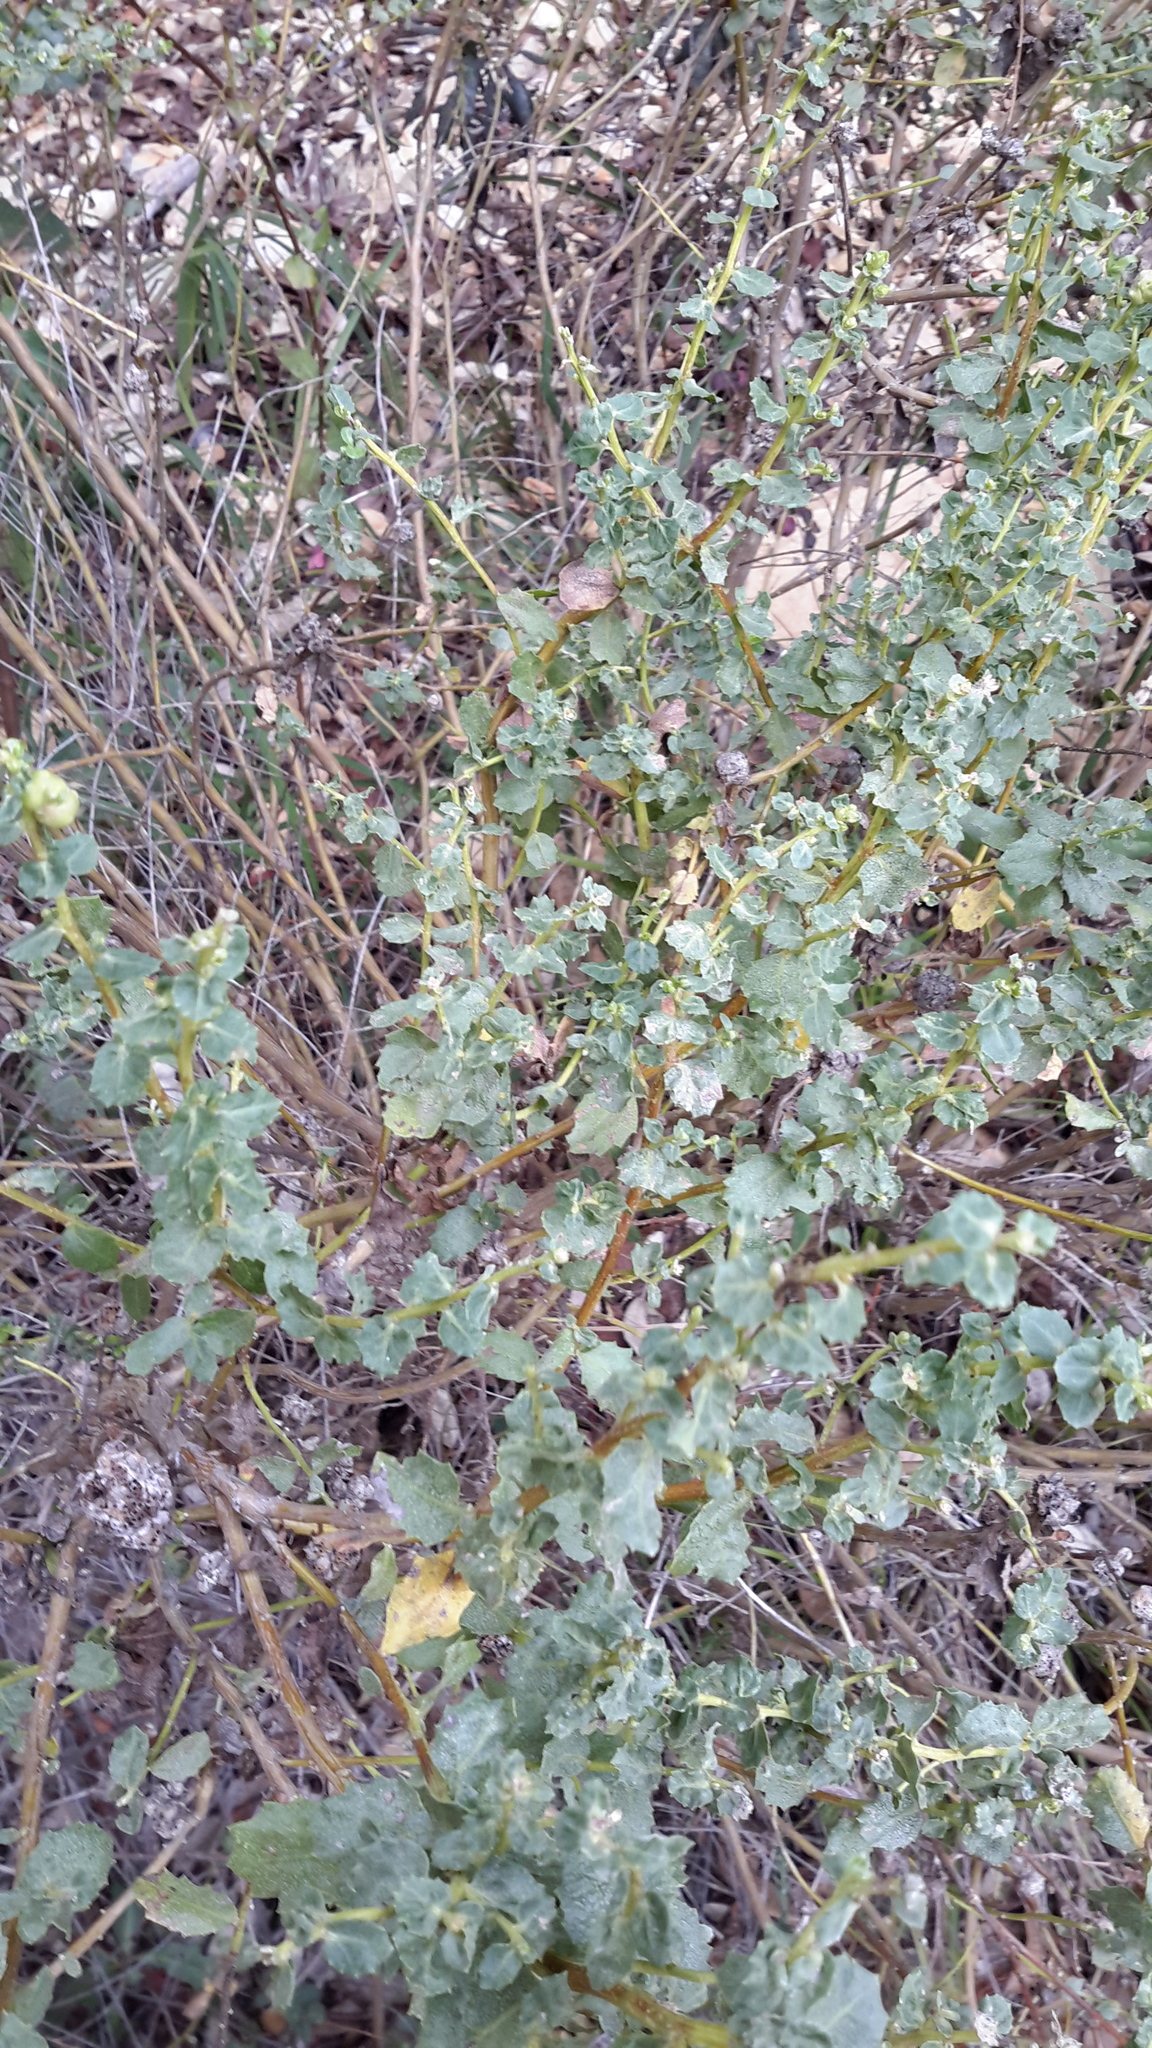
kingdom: Plantae
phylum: Tracheophyta
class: Magnoliopsida
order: Asterales
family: Asteraceae
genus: Baccharis
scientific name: Baccharis pilularis
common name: Coyotebrush
